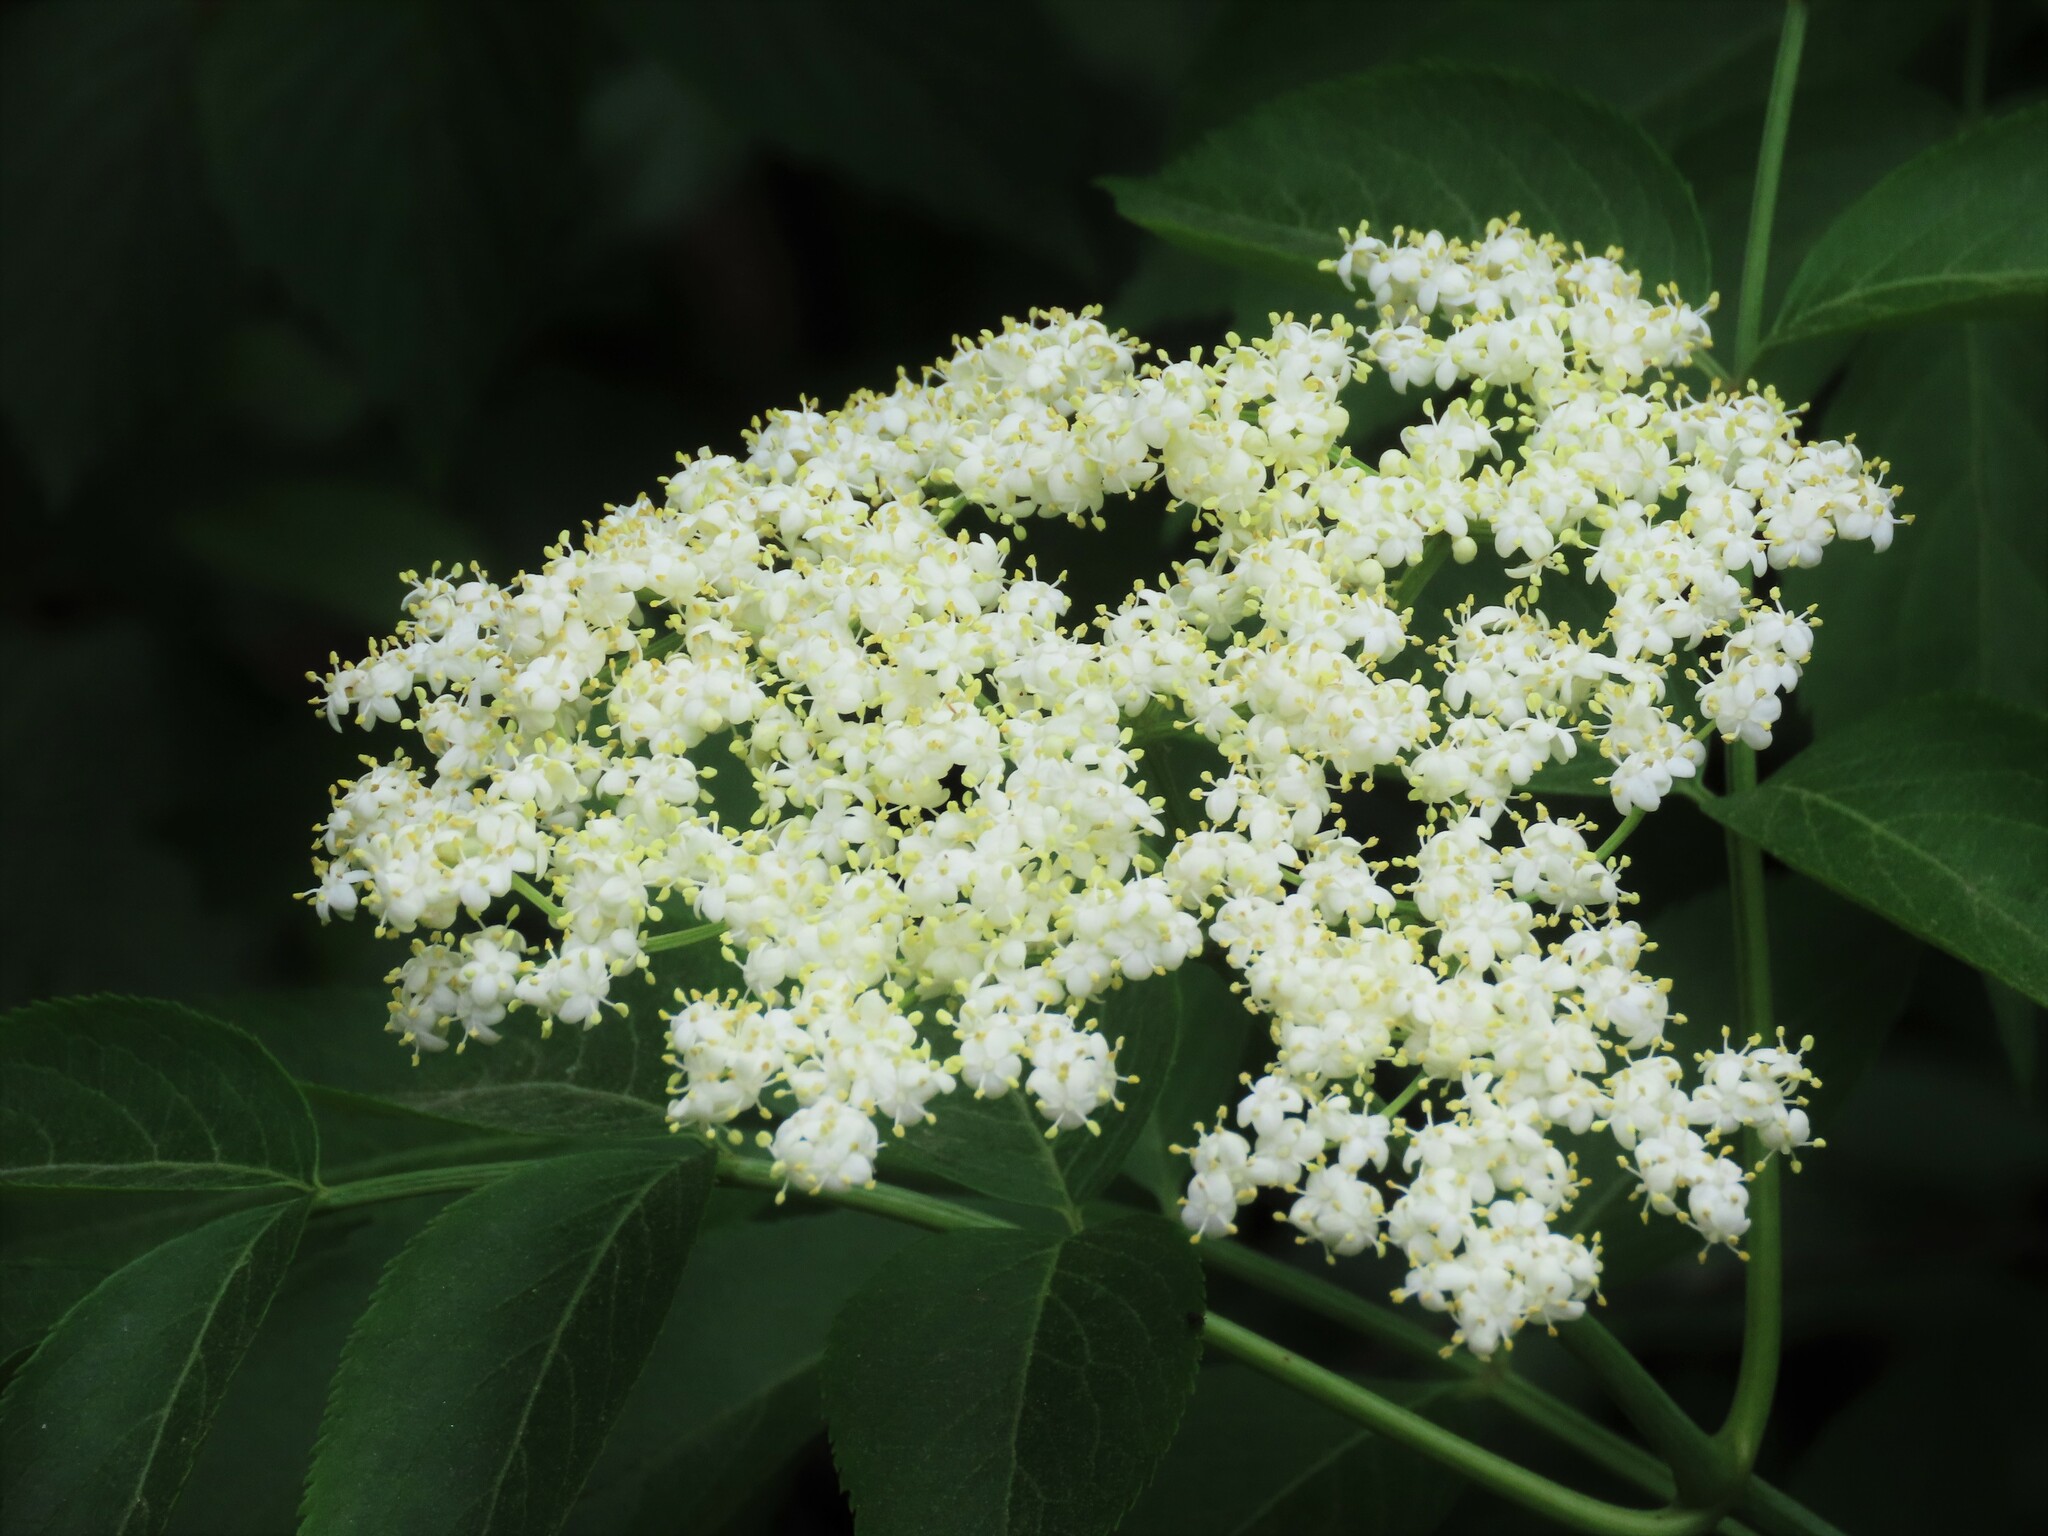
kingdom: Plantae
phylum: Tracheophyta
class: Magnoliopsida
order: Dipsacales
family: Viburnaceae
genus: Sambucus
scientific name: Sambucus canadensis
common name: American elder
